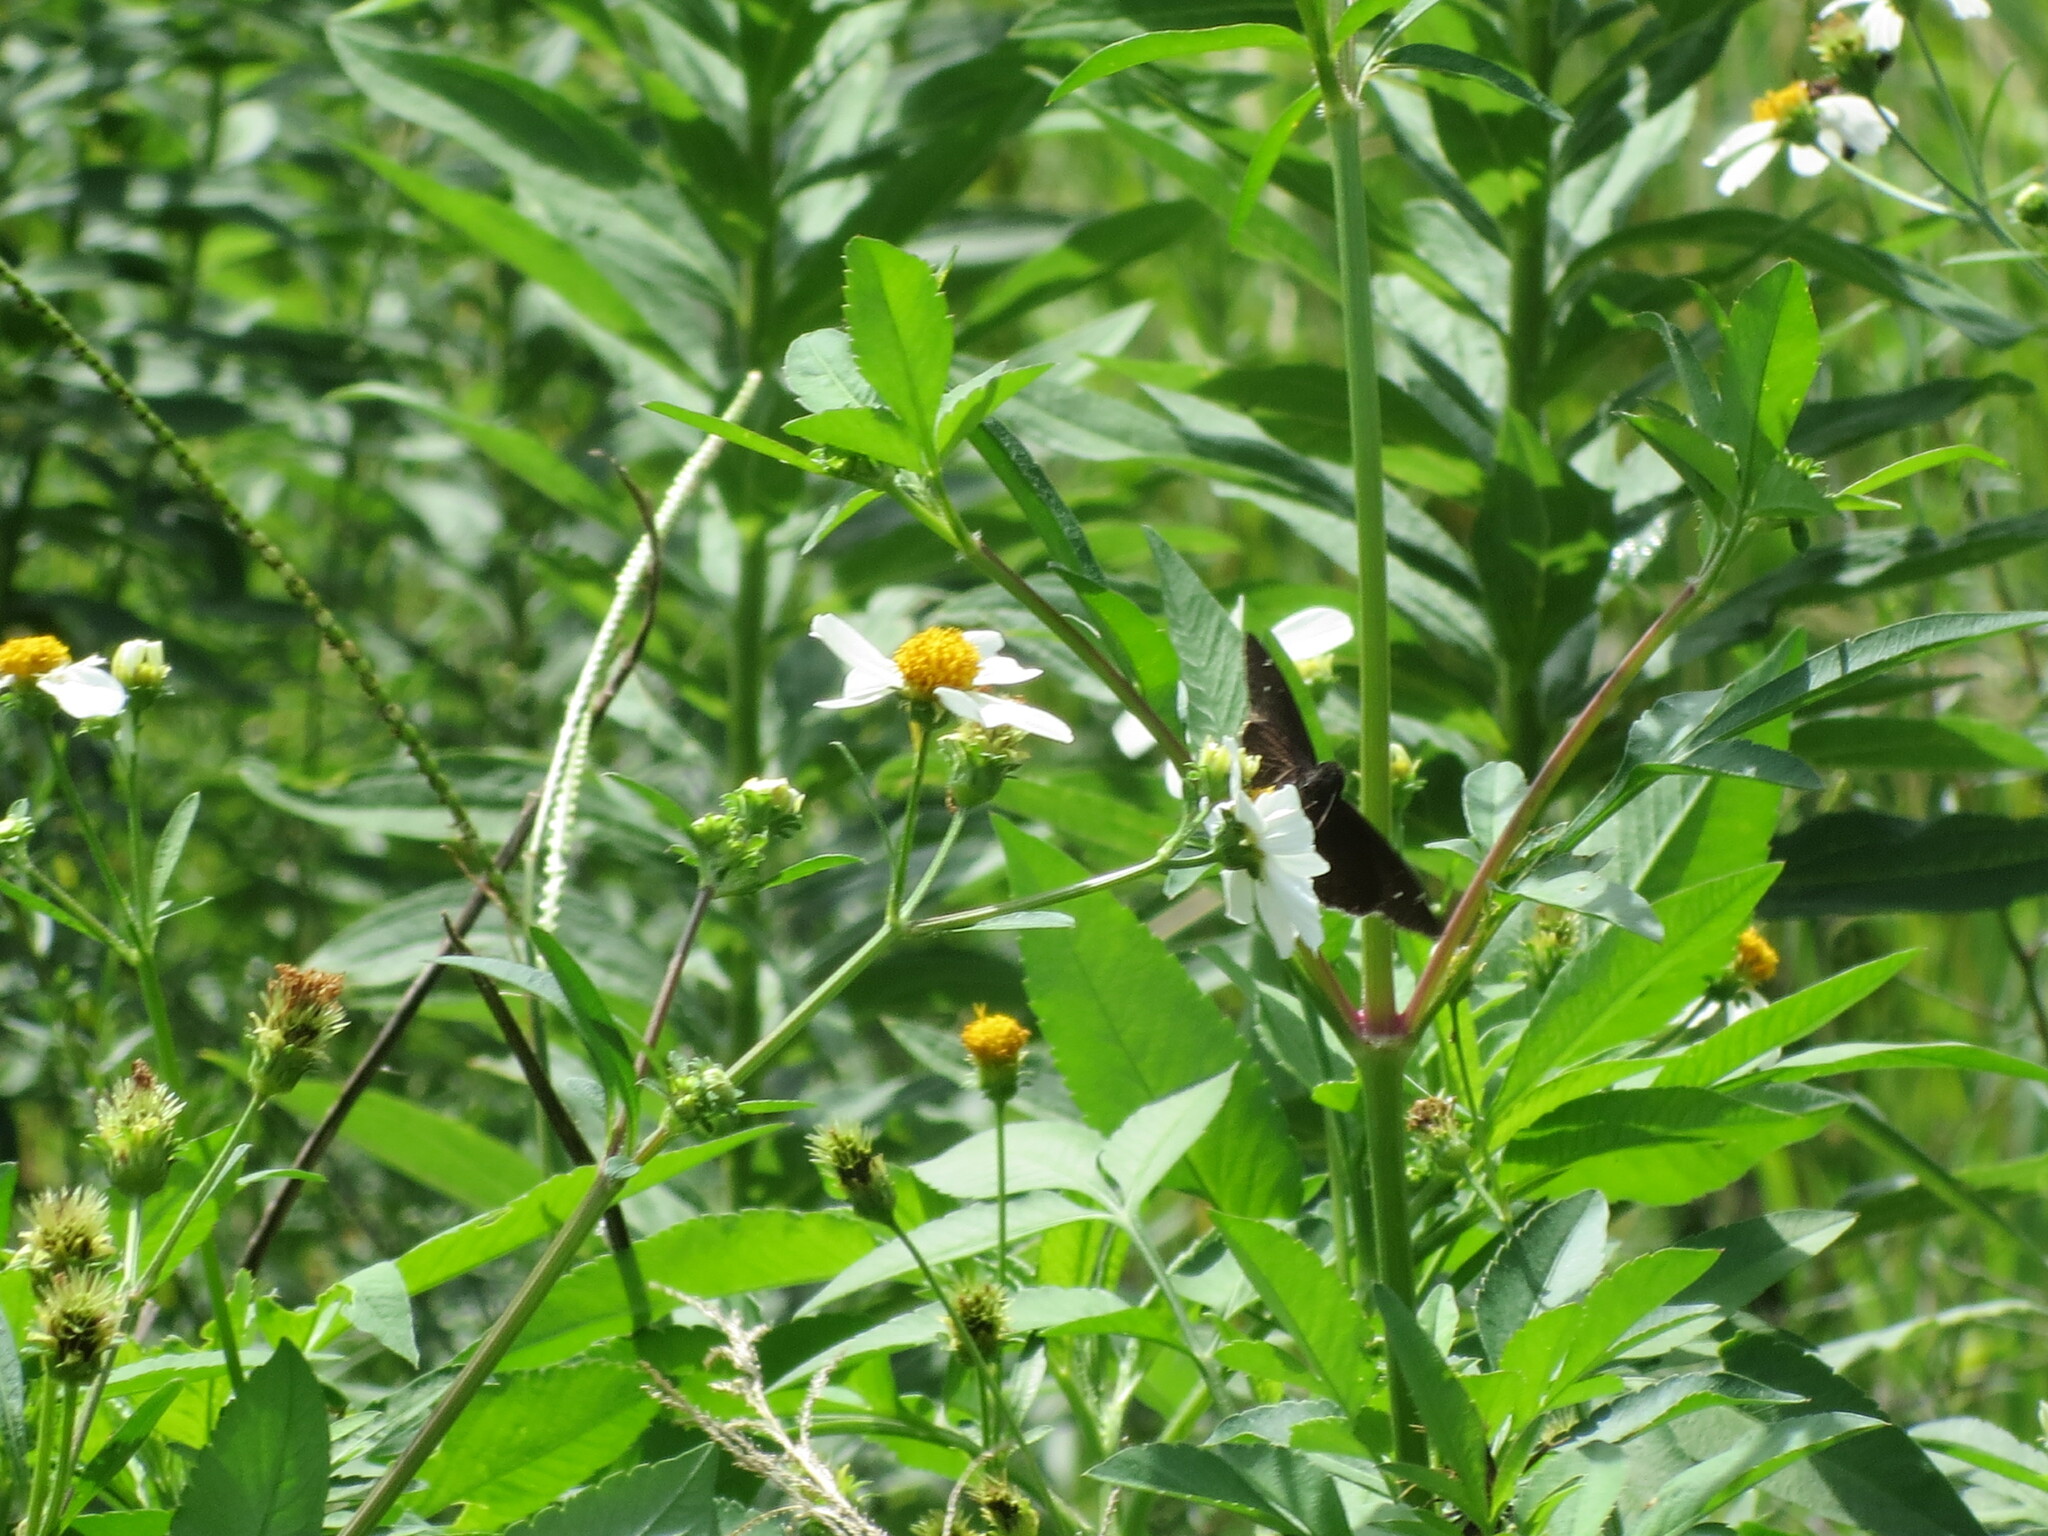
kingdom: Plantae
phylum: Tracheophyta
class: Magnoliopsida
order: Asterales
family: Asteraceae
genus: Bidens
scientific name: Bidens alba
